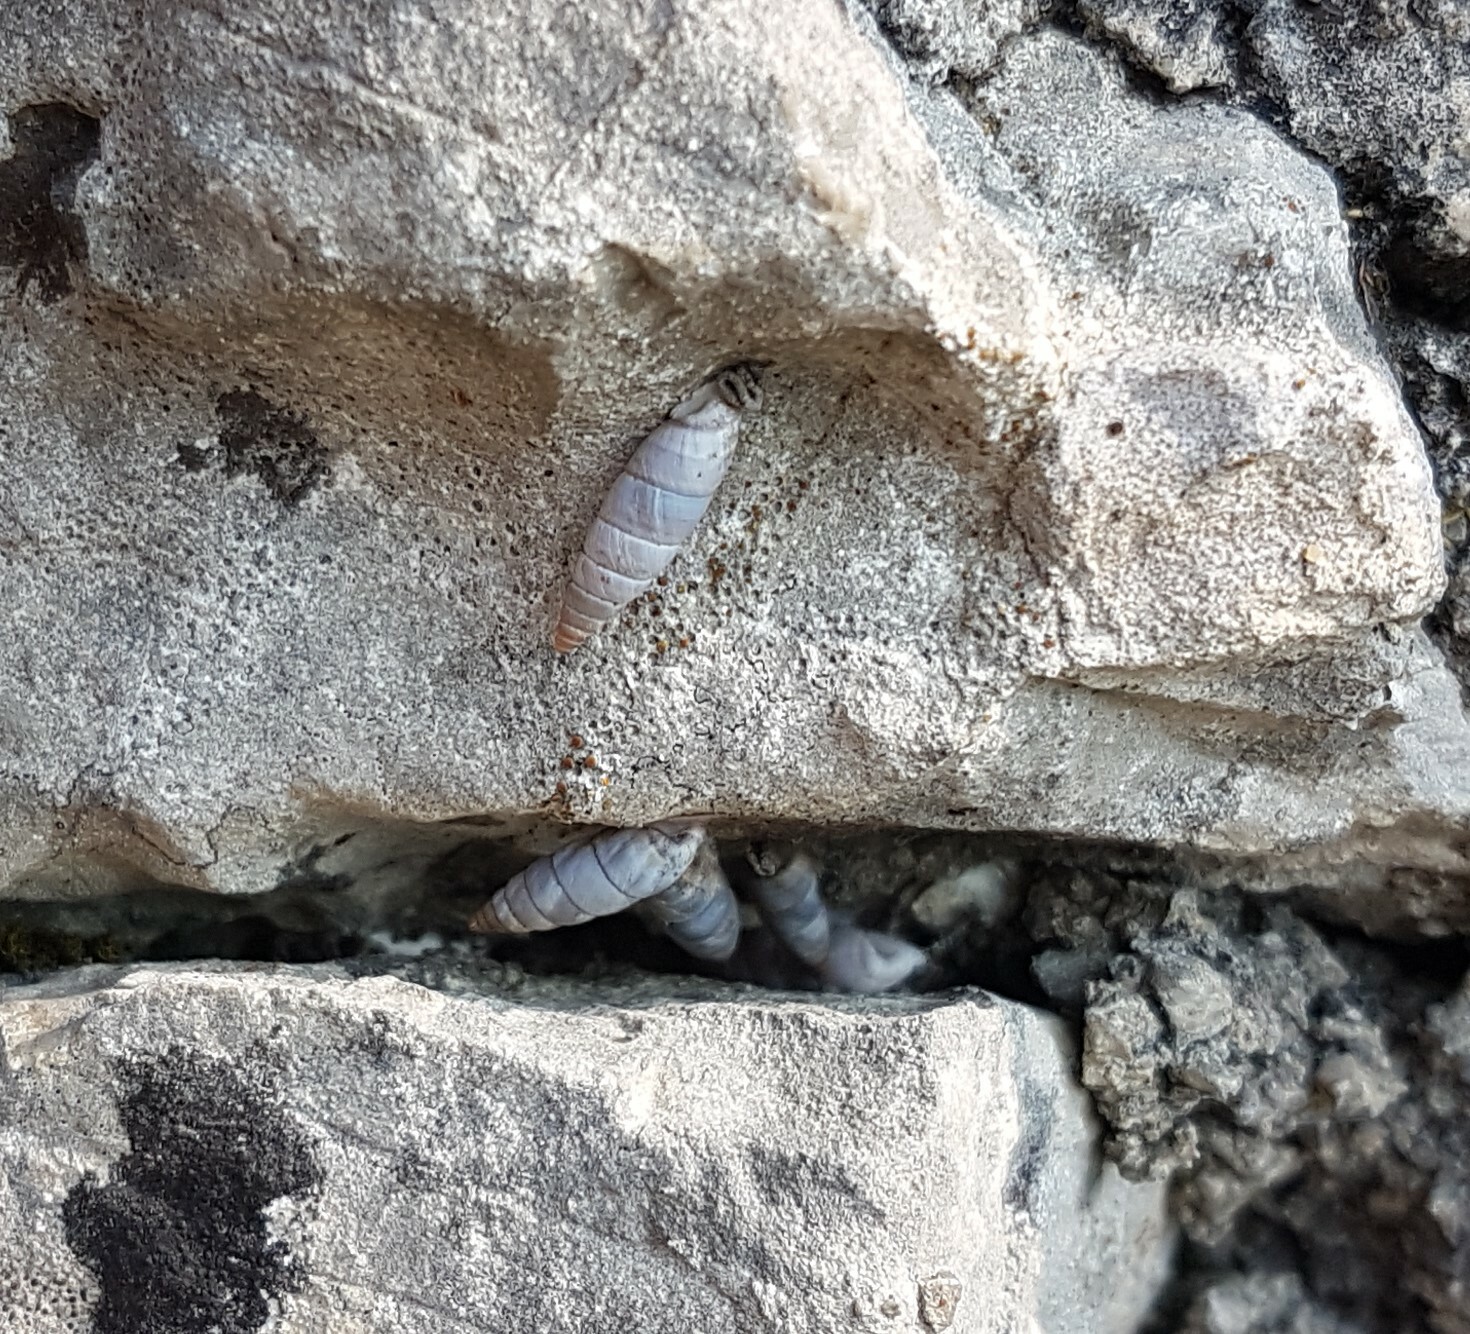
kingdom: Animalia
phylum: Mollusca
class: Gastropoda
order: Stylommatophora
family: Chondrinidae
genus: Solatopupa
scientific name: Solatopupa similis
